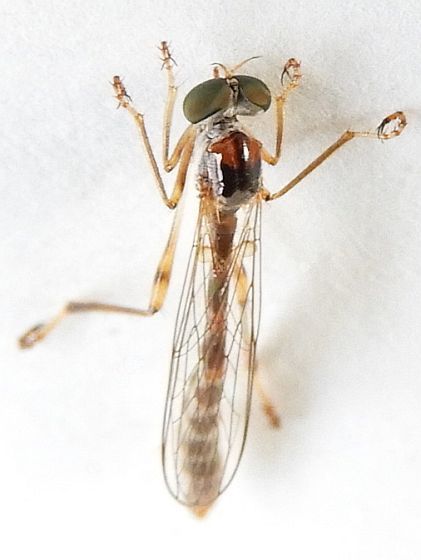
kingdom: Animalia
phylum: Arthropoda
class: Insecta
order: Diptera
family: Asilidae
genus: Tipulogaster
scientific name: Tipulogaster glabrata
